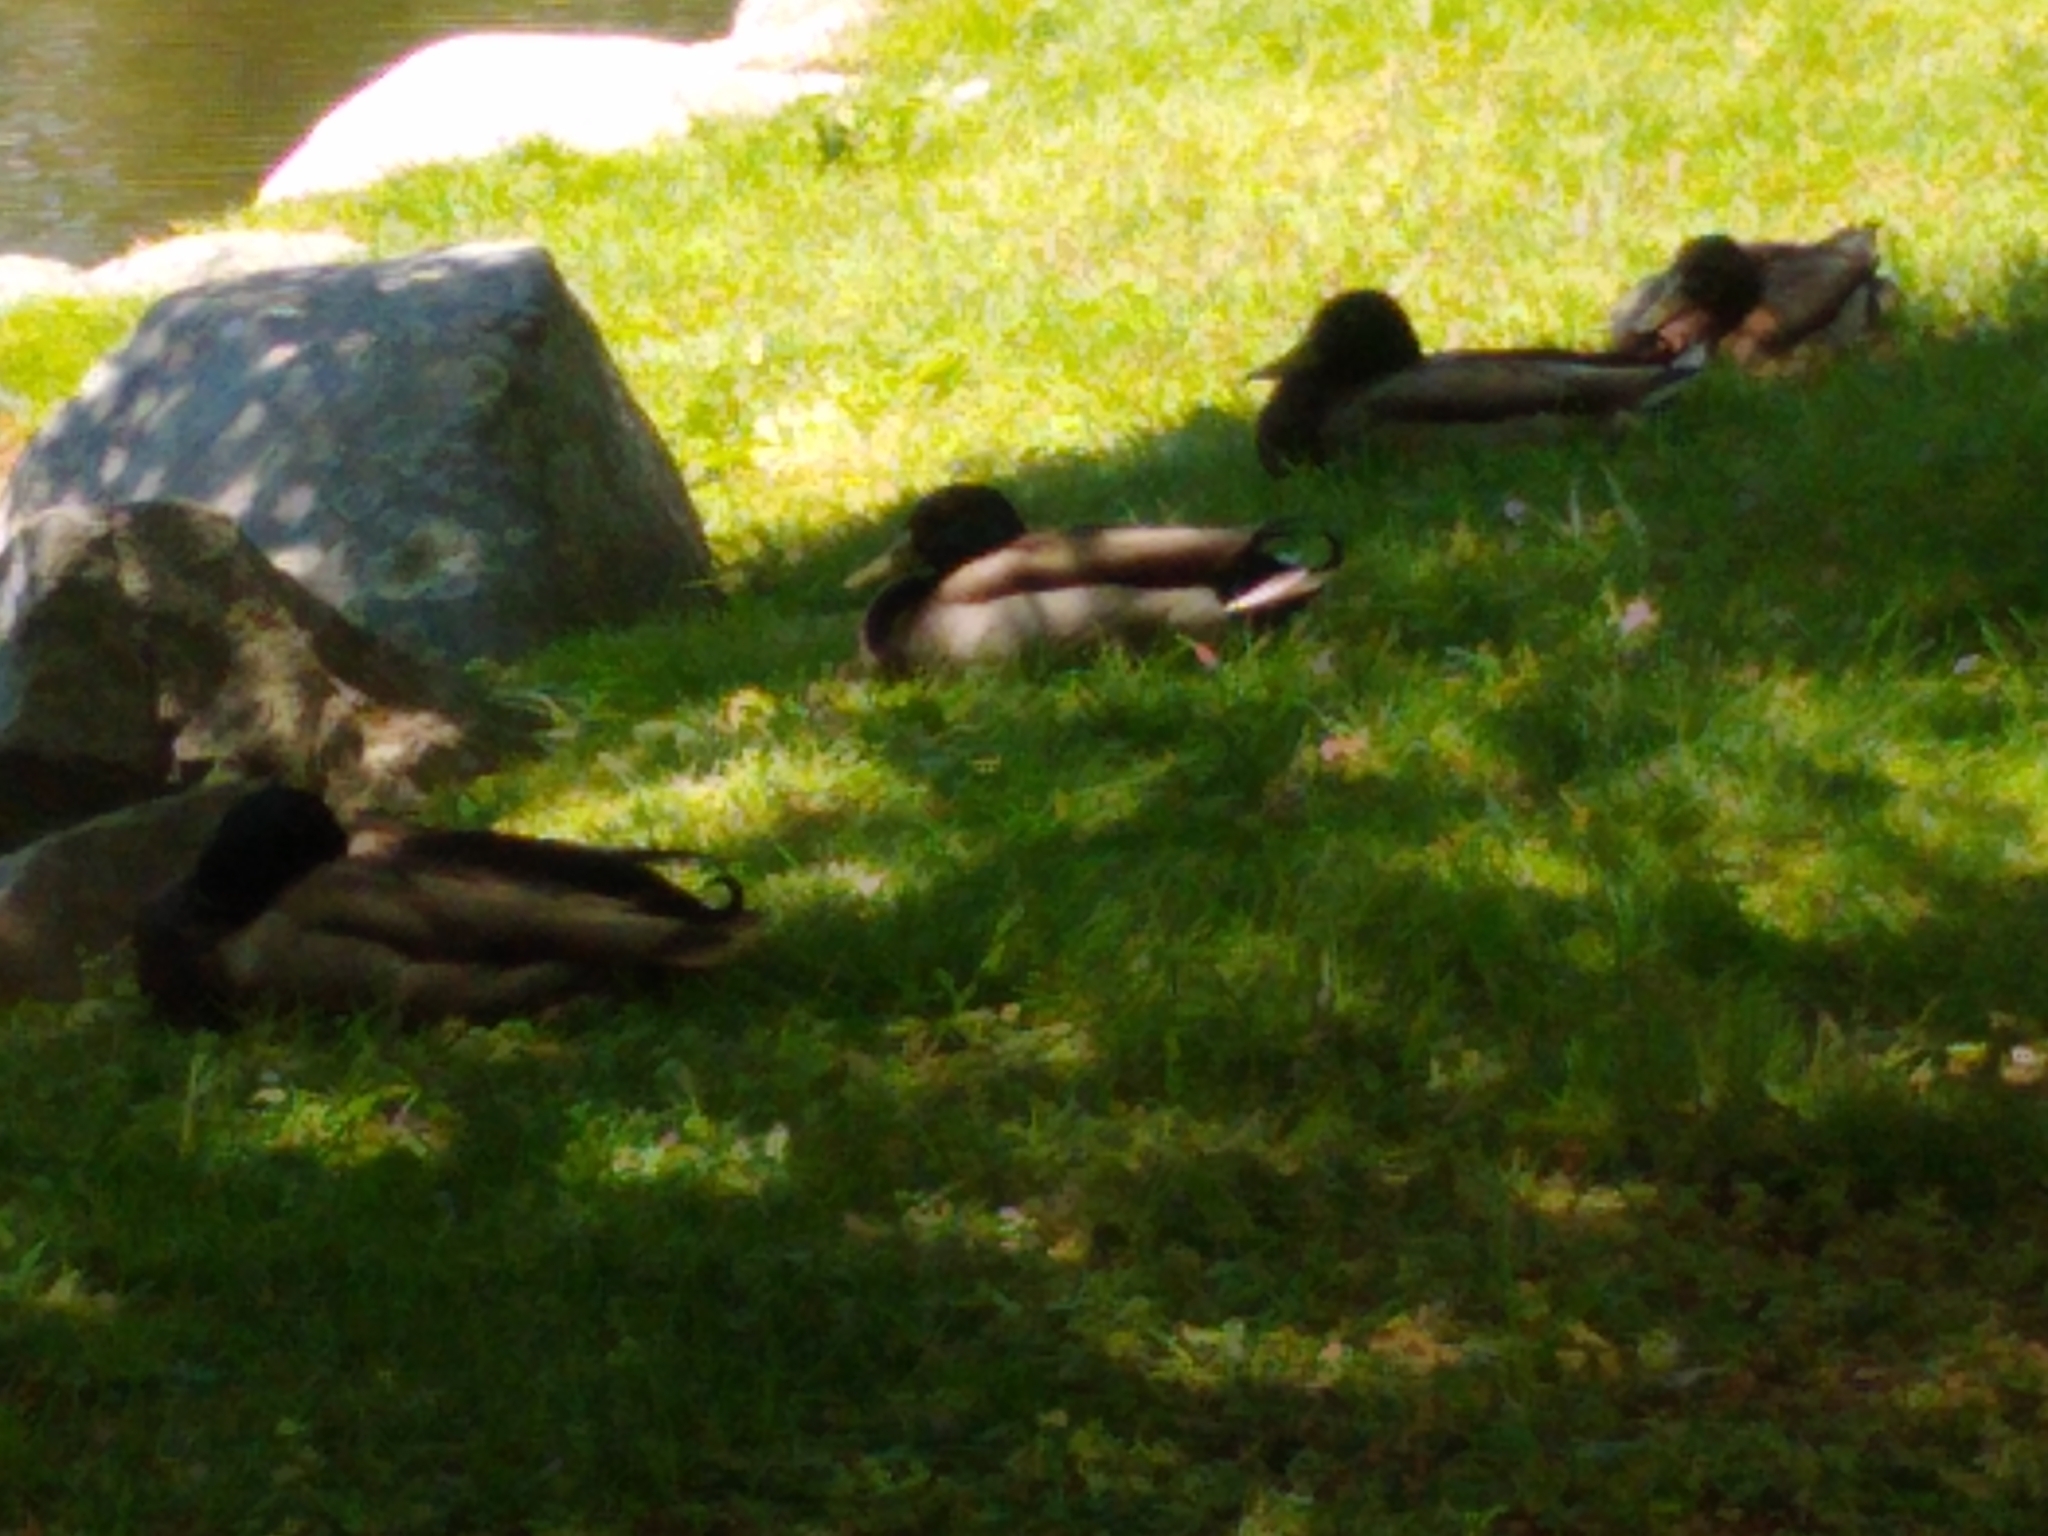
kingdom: Animalia
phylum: Chordata
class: Aves
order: Anseriformes
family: Anatidae
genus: Anas
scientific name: Anas platyrhynchos
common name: Mallard
